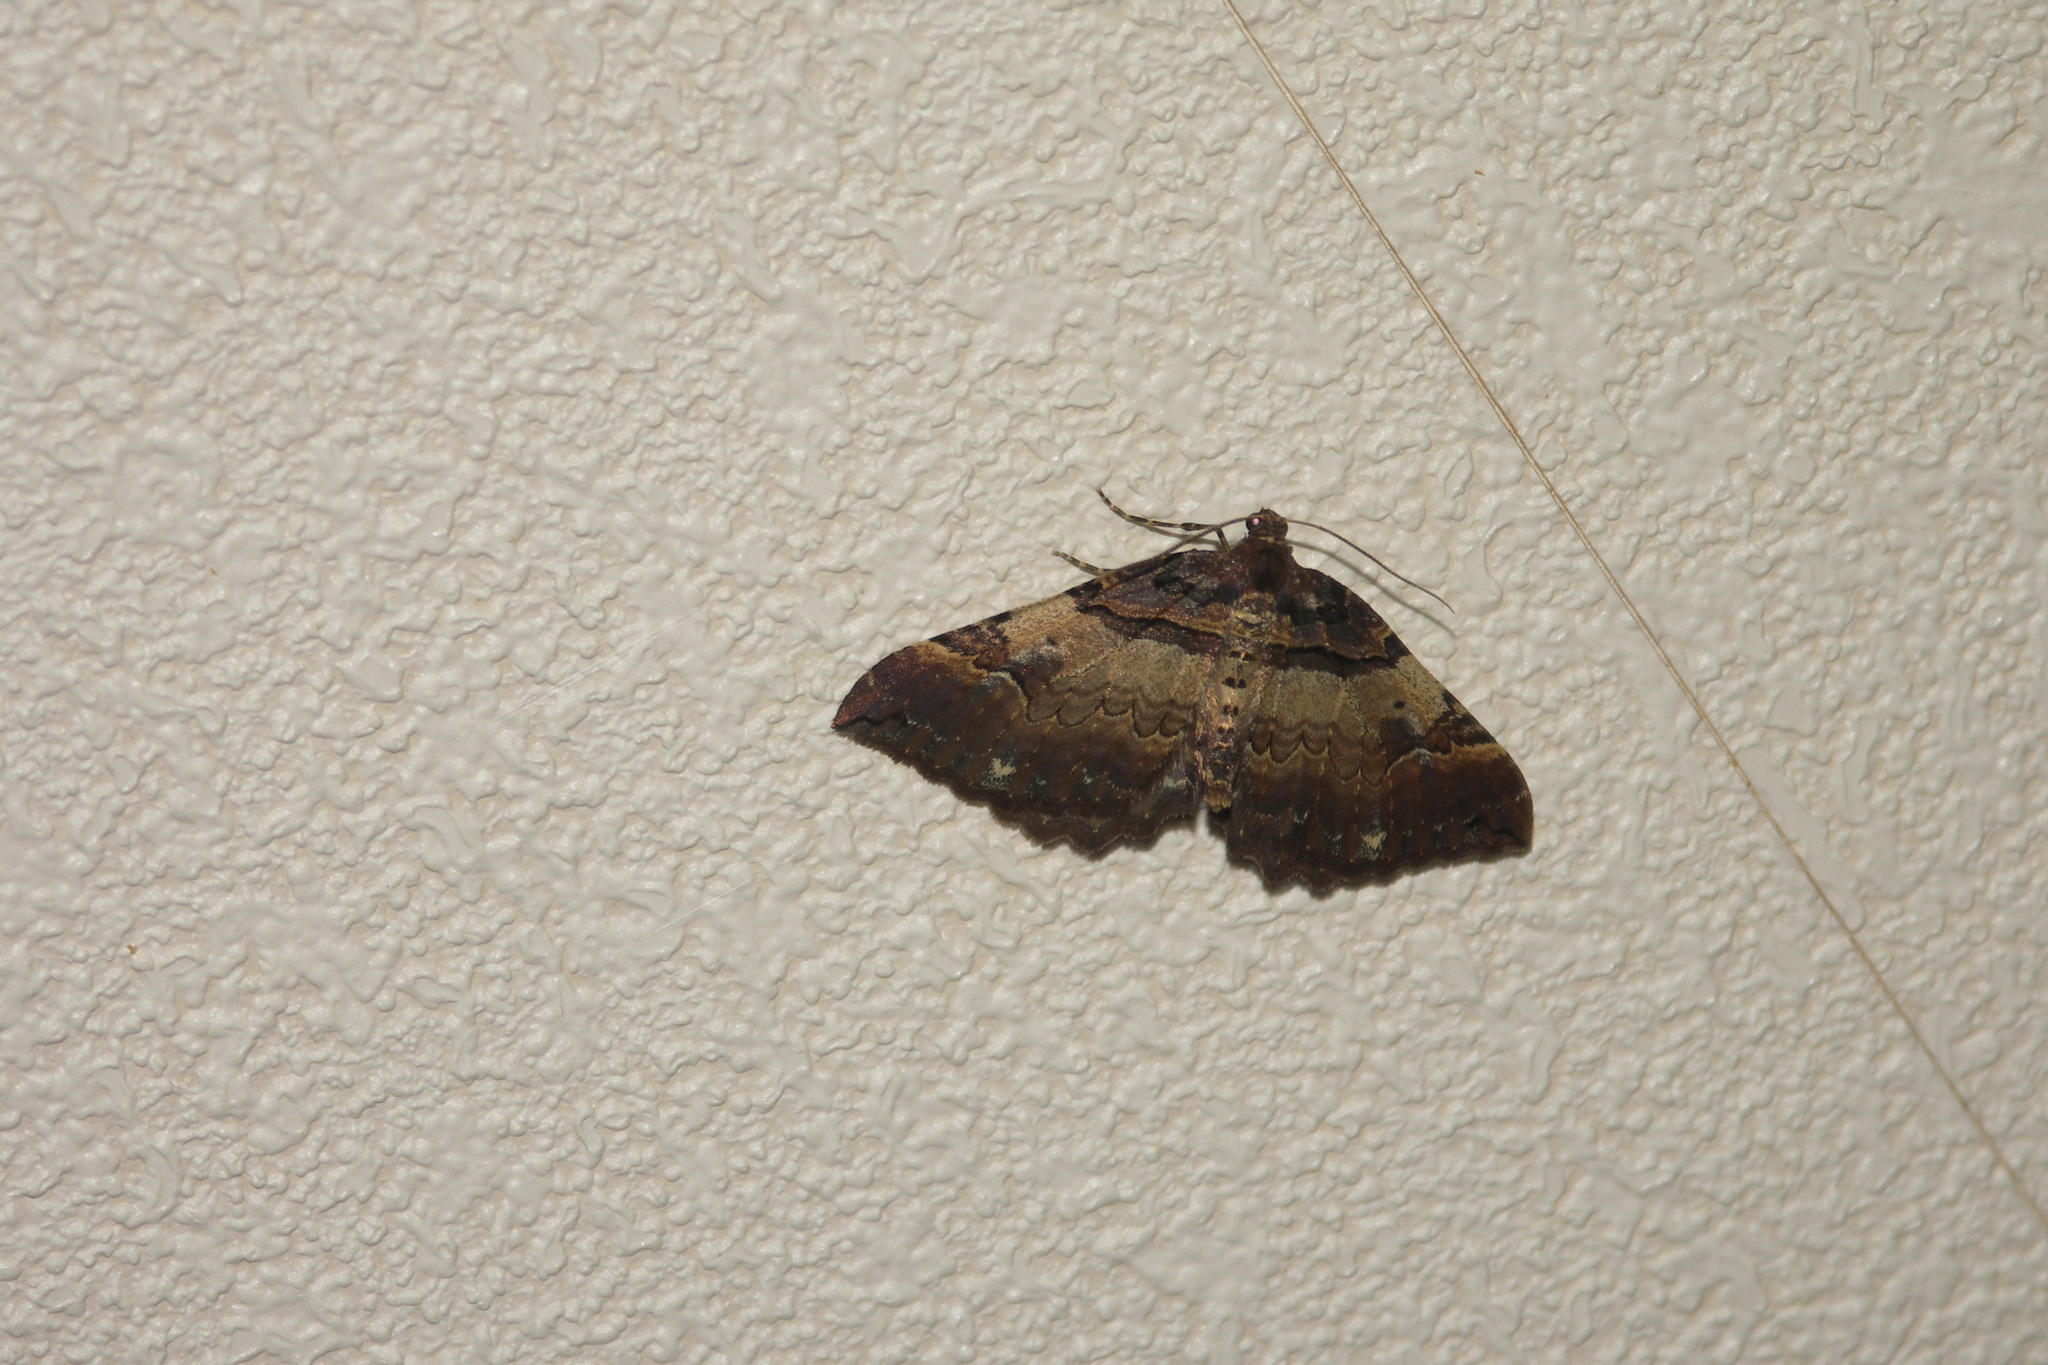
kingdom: Animalia
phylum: Arthropoda
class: Insecta
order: Lepidoptera
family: Geometridae
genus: Anticlea
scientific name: Anticlea badiata
